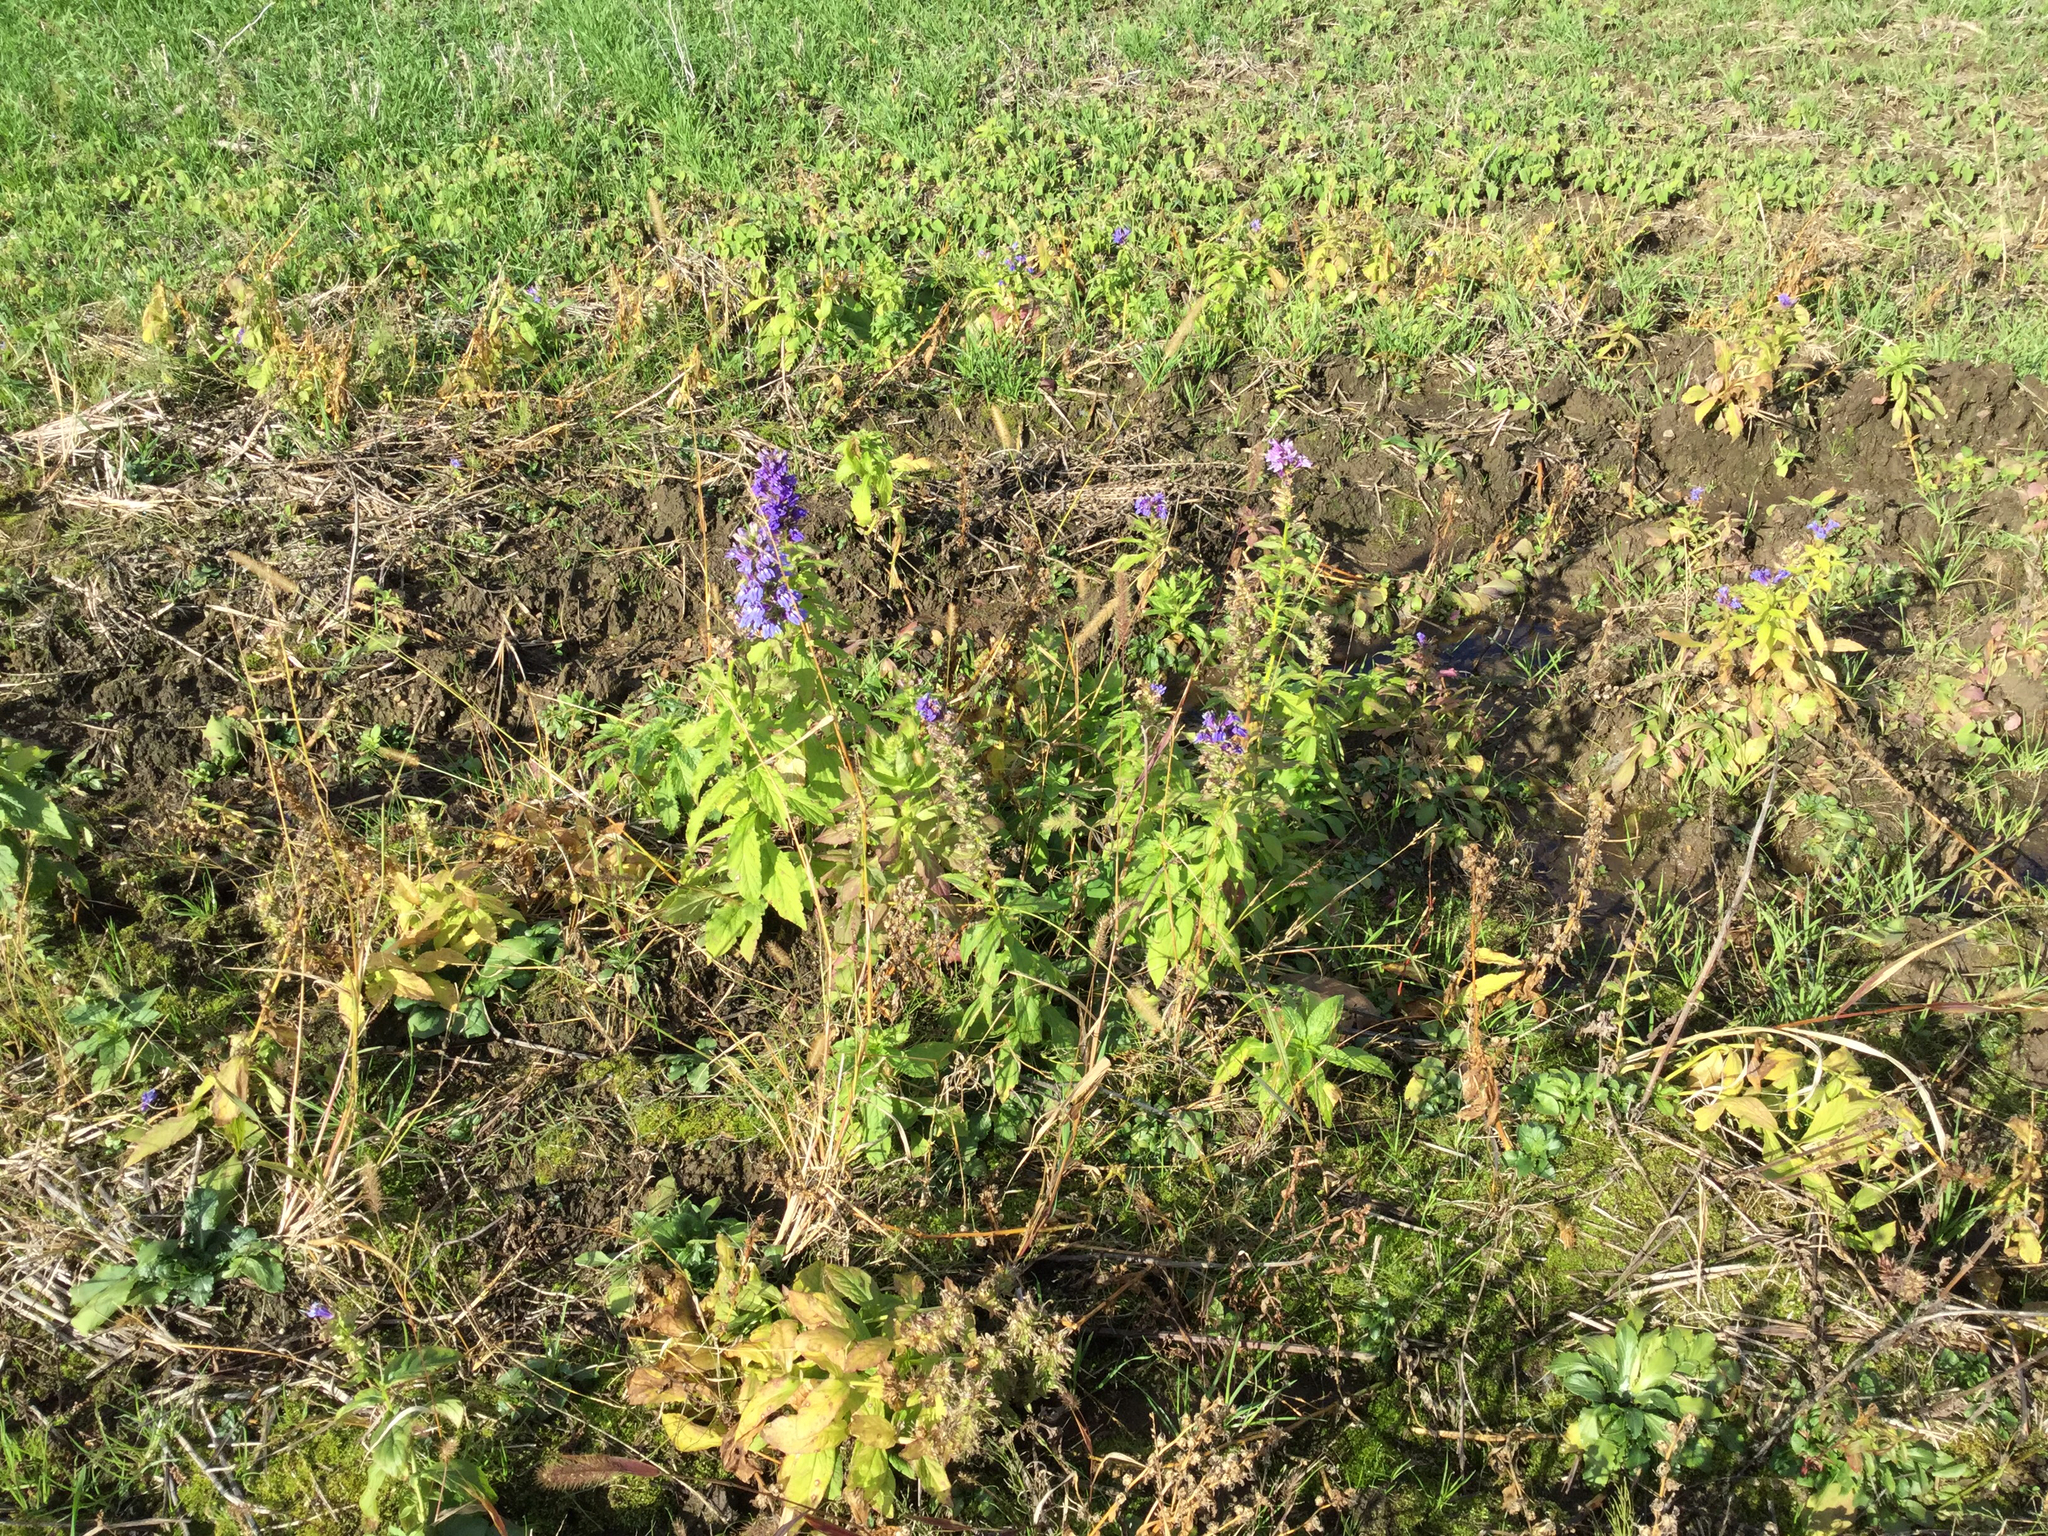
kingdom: Plantae
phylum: Tracheophyta
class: Magnoliopsida
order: Asterales
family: Campanulaceae
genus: Lobelia
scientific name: Lobelia siphilitica
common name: Great lobelia
